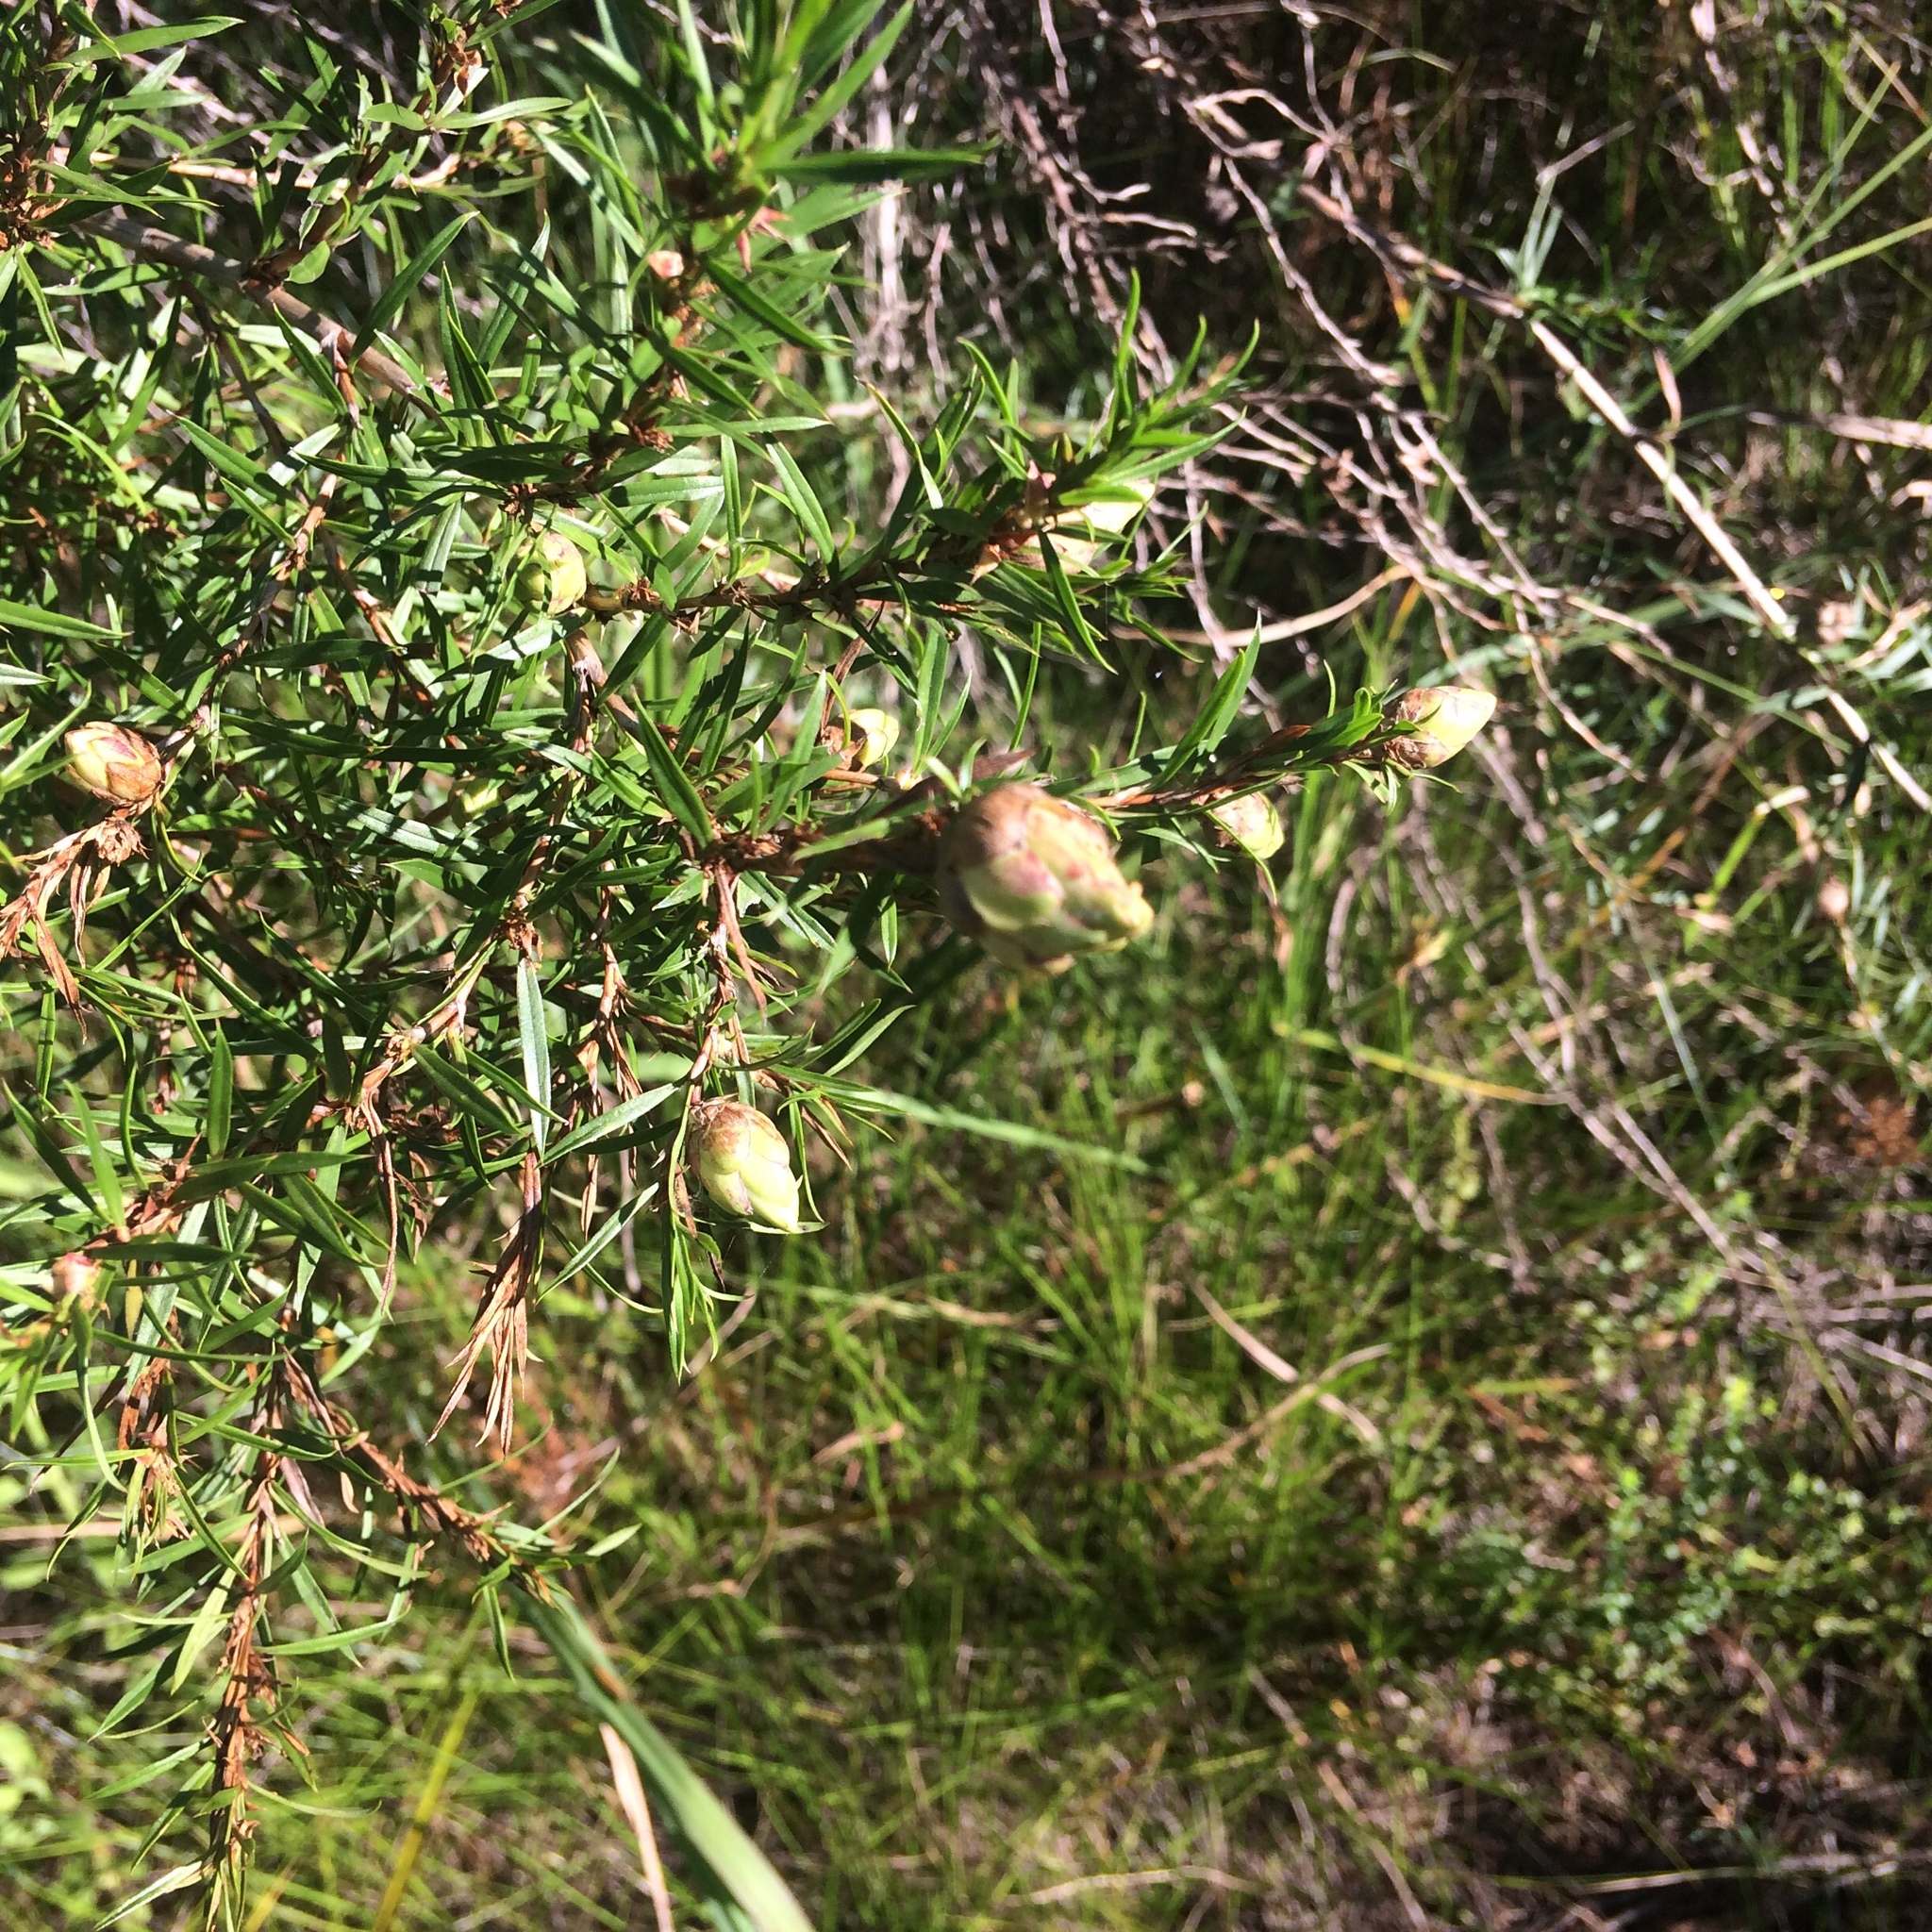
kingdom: Plantae
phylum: Tracheophyta
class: Magnoliopsida
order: Rosales
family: Rosaceae
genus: Cliffortia
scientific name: Cliffortia strobilifera
